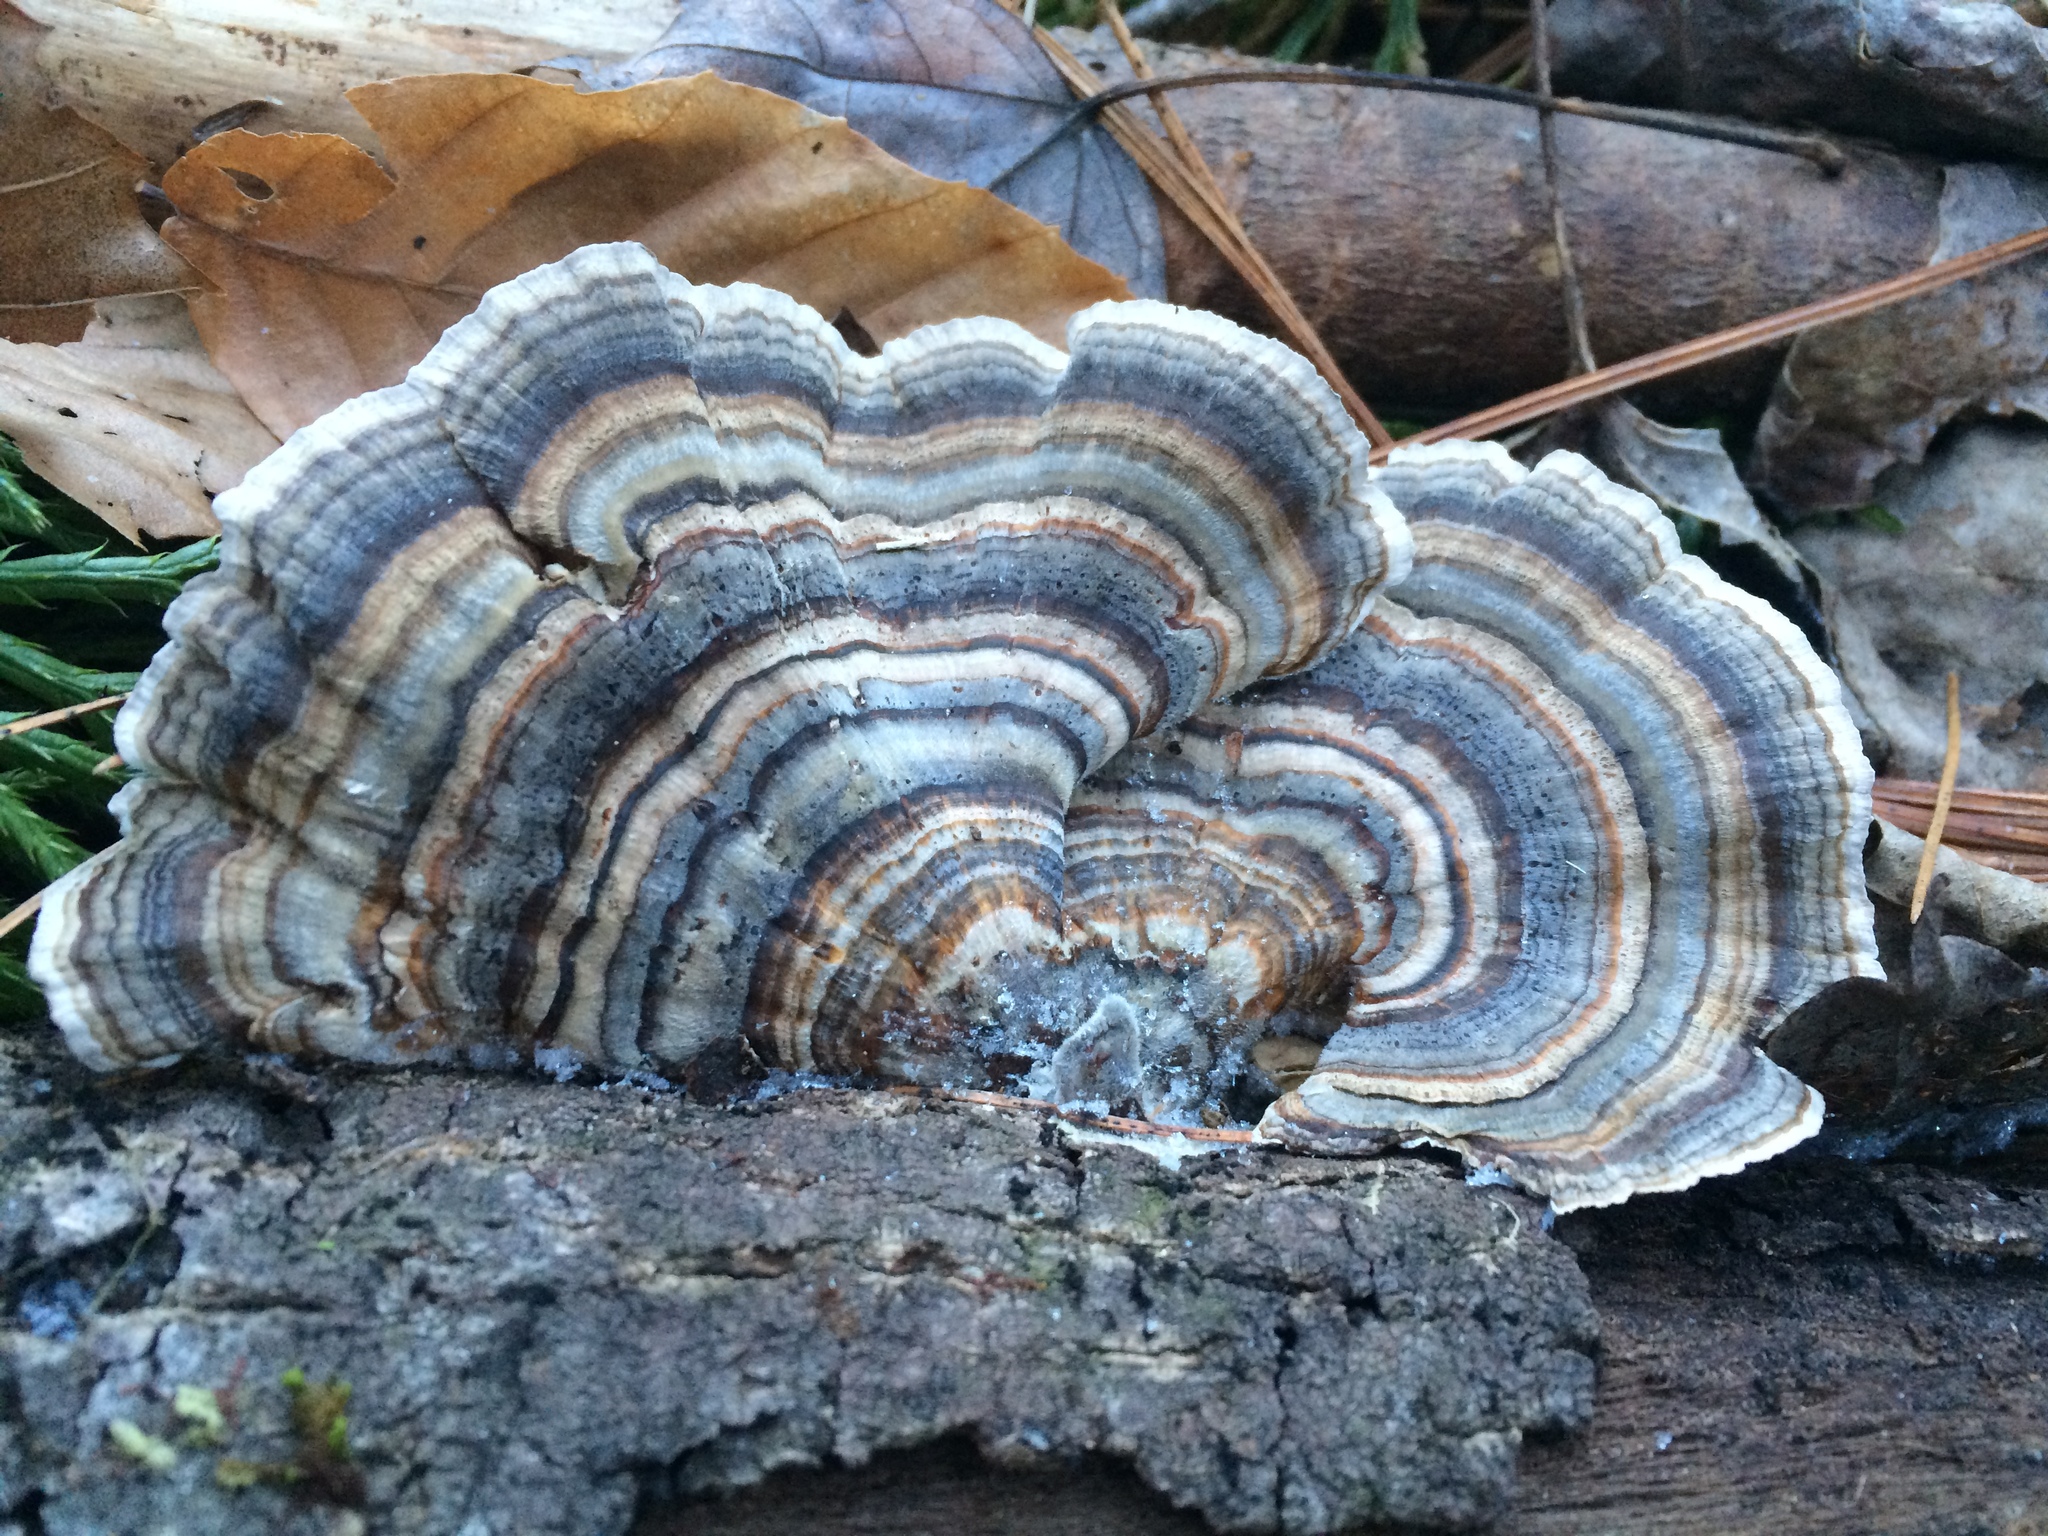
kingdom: Fungi
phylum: Basidiomycota
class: Agaricomycetes
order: Polyporales
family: Polyporaceae
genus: Trametes
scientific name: Trametes versicolor
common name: Turkeytail
